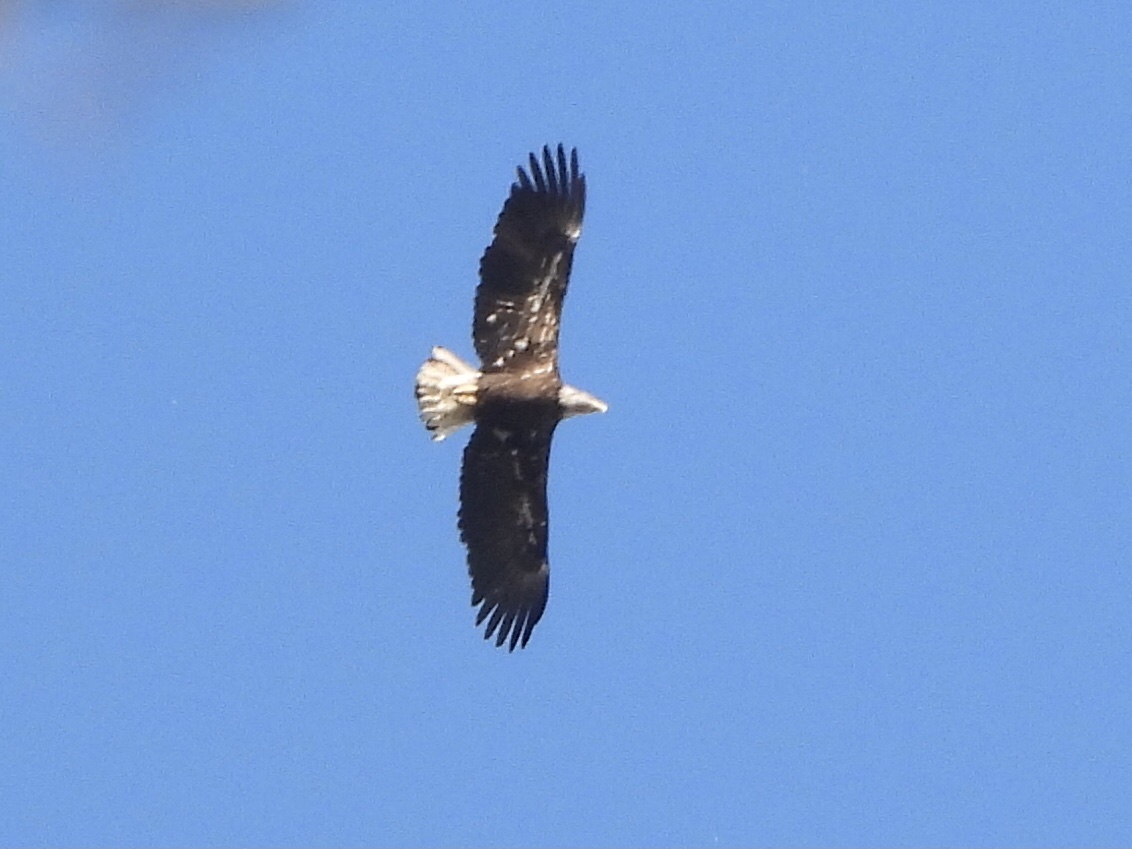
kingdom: Animalia
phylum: Chordata
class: Aves
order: Accipitriformes
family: Accipitridae
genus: Haliaeetus
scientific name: Haliaeetus leucocephalus
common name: Bald eagle
